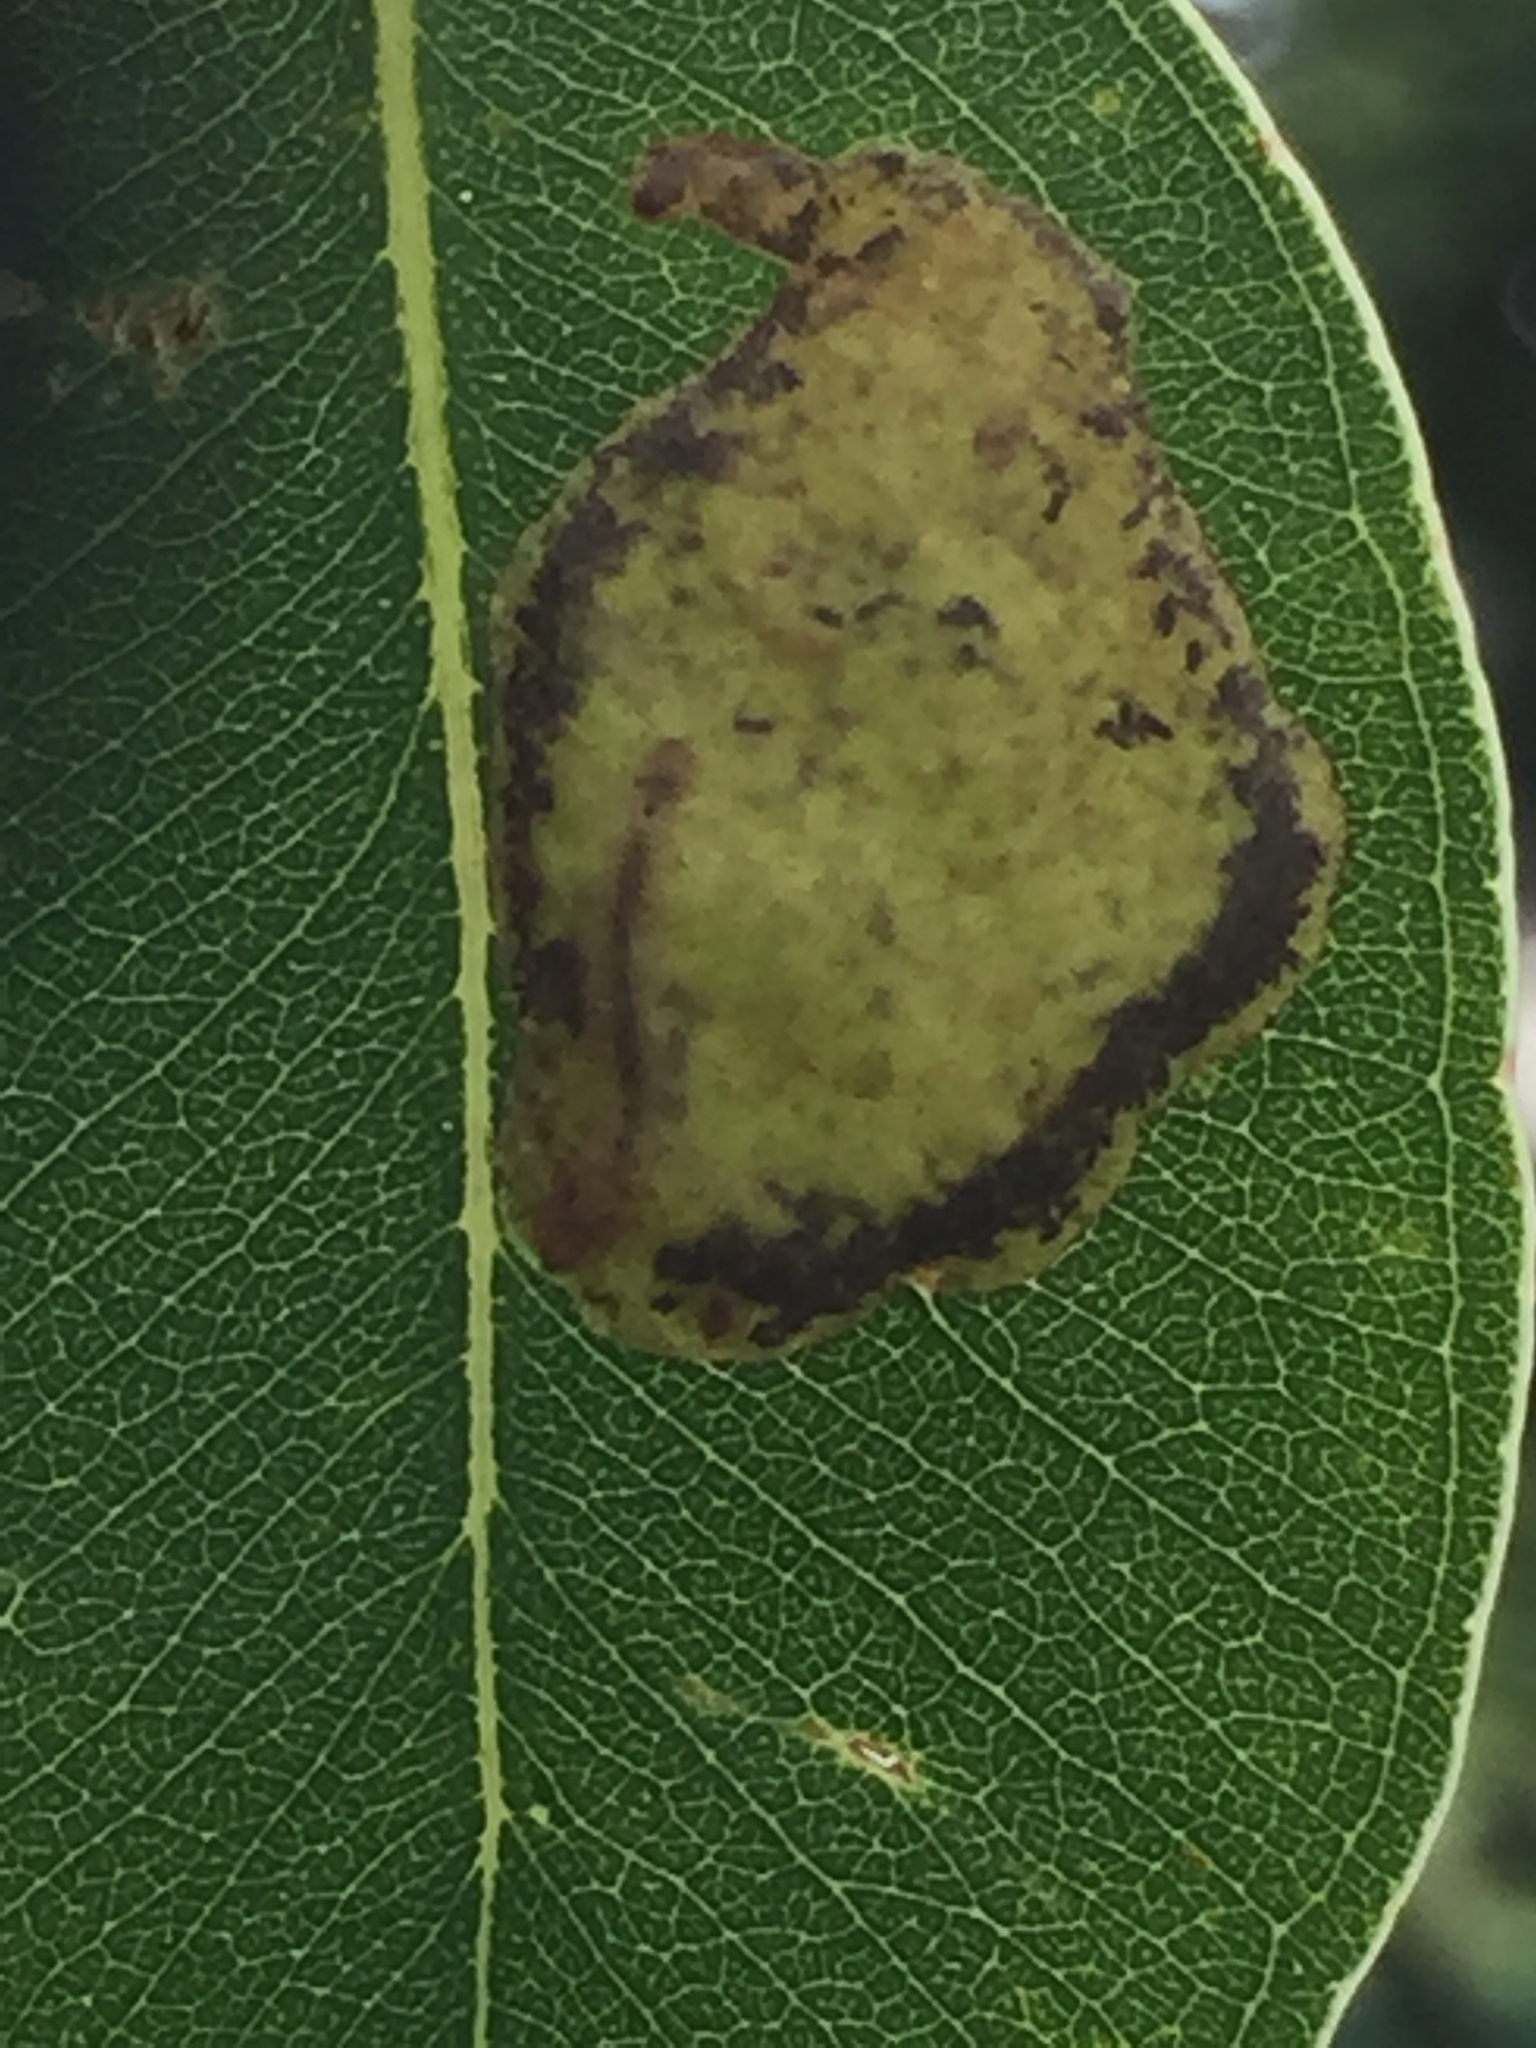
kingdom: Animalia
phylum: Arthropoda
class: Insecta
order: Hymenoptera
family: Pergidae
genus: Phylacteophaga
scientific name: Phylacteophaga froggatti
